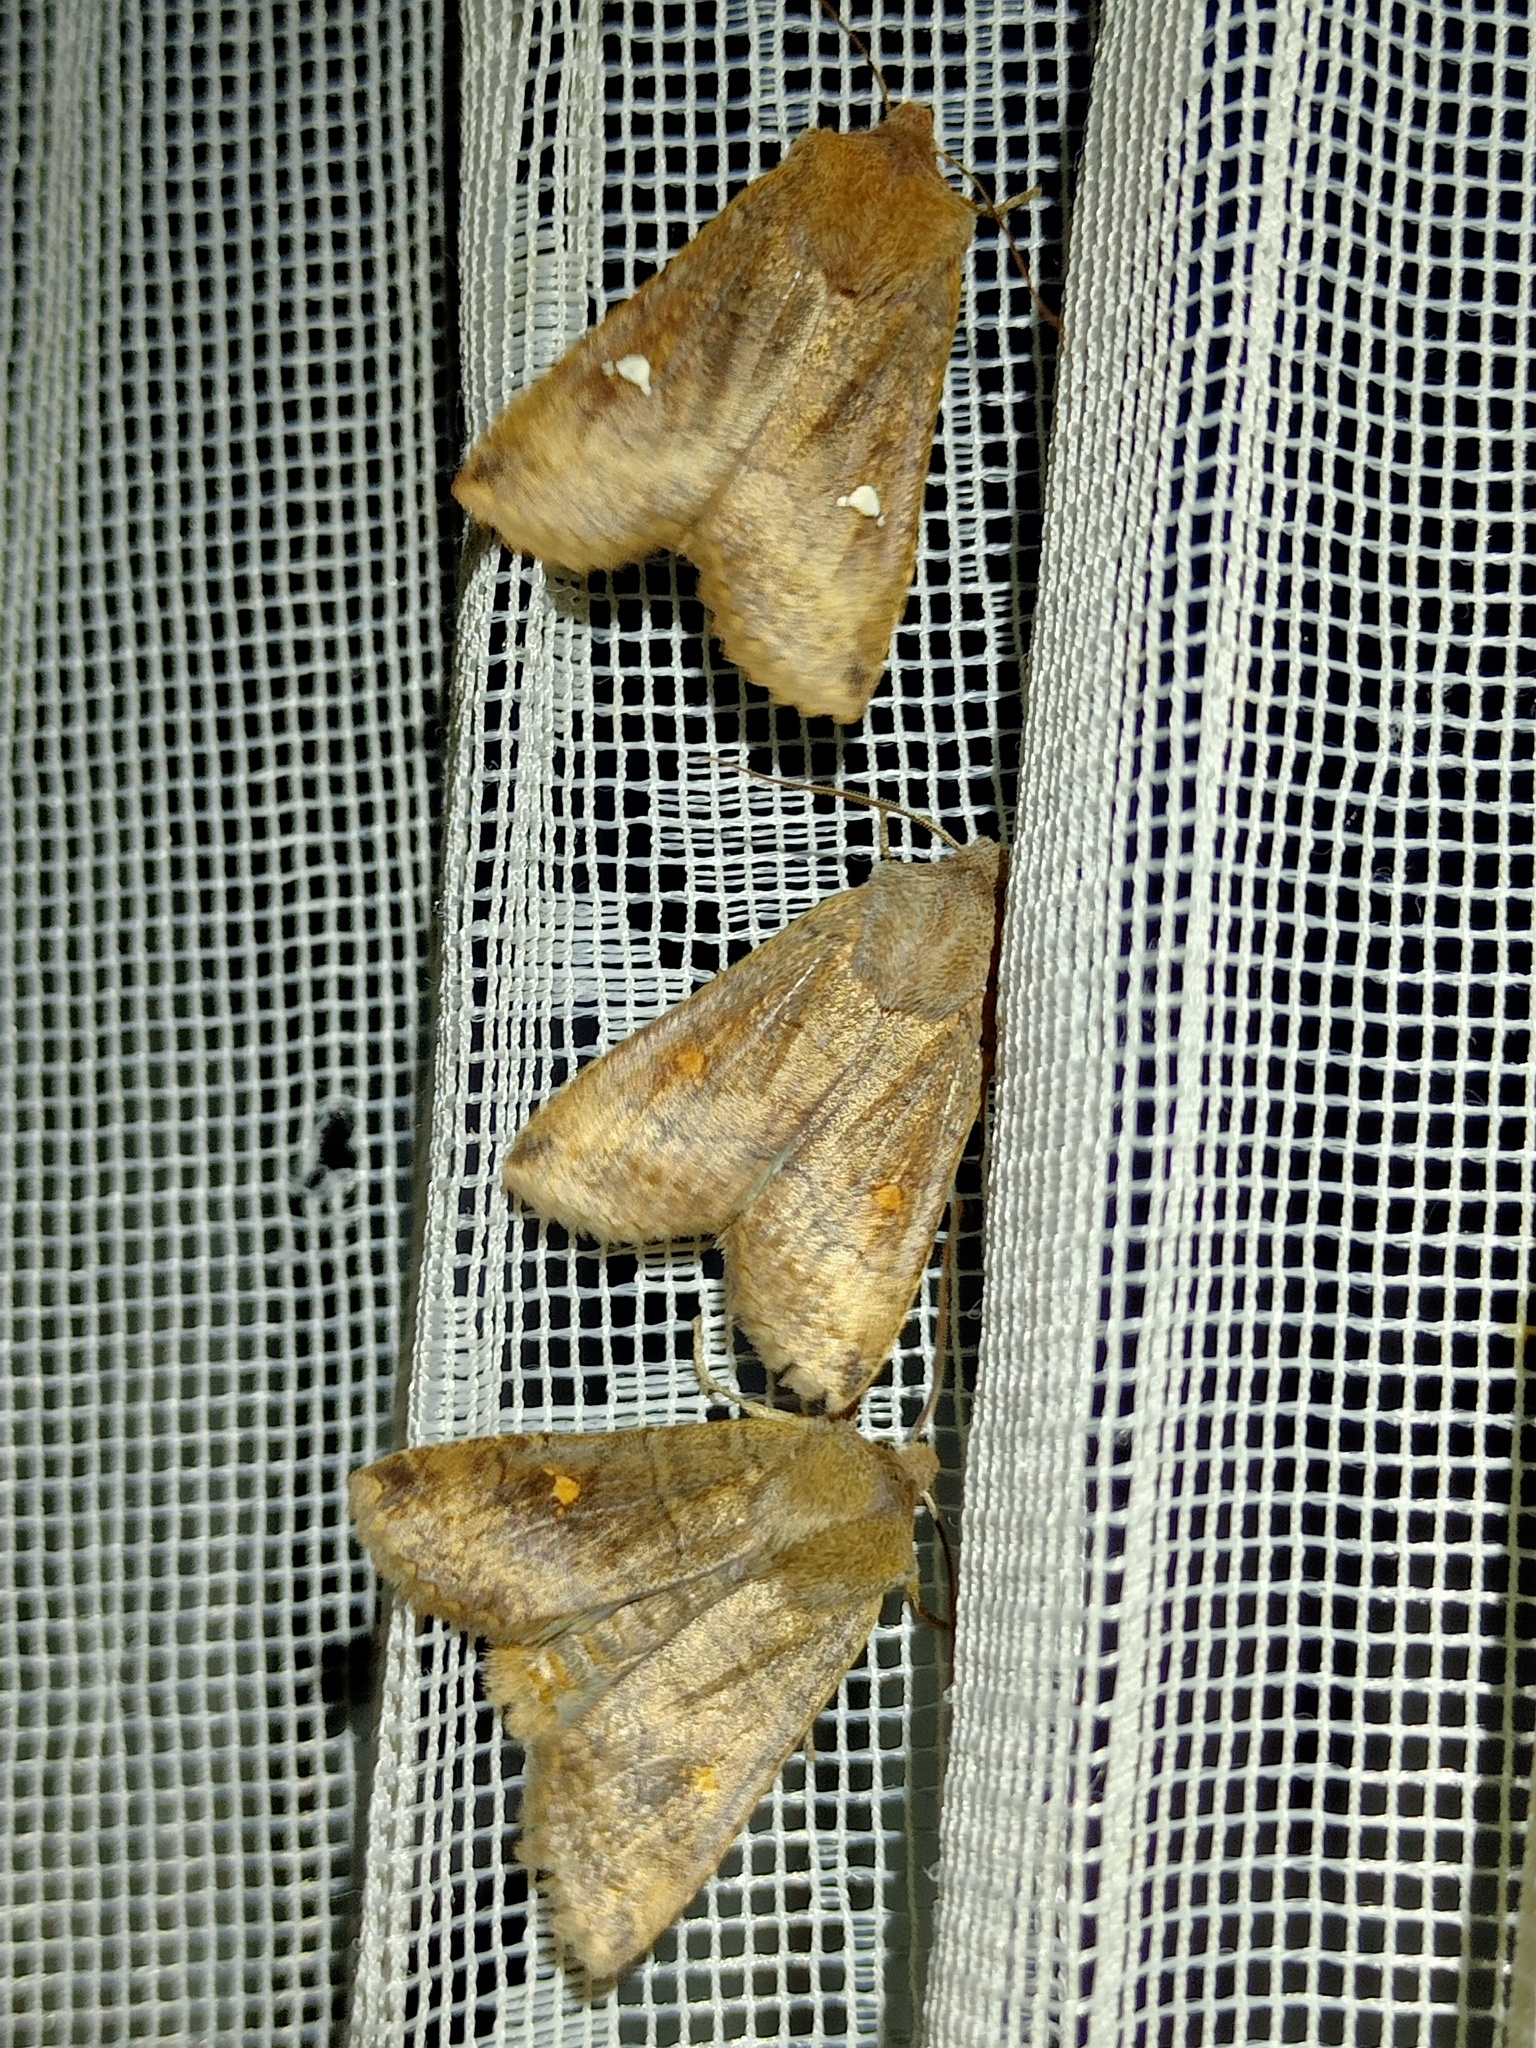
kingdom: Animalia
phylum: Arthropoda
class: Insecta
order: Lepidoptera
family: Noctuidae
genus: Eupsilia
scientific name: Eupsilia transversa
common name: Satellite
